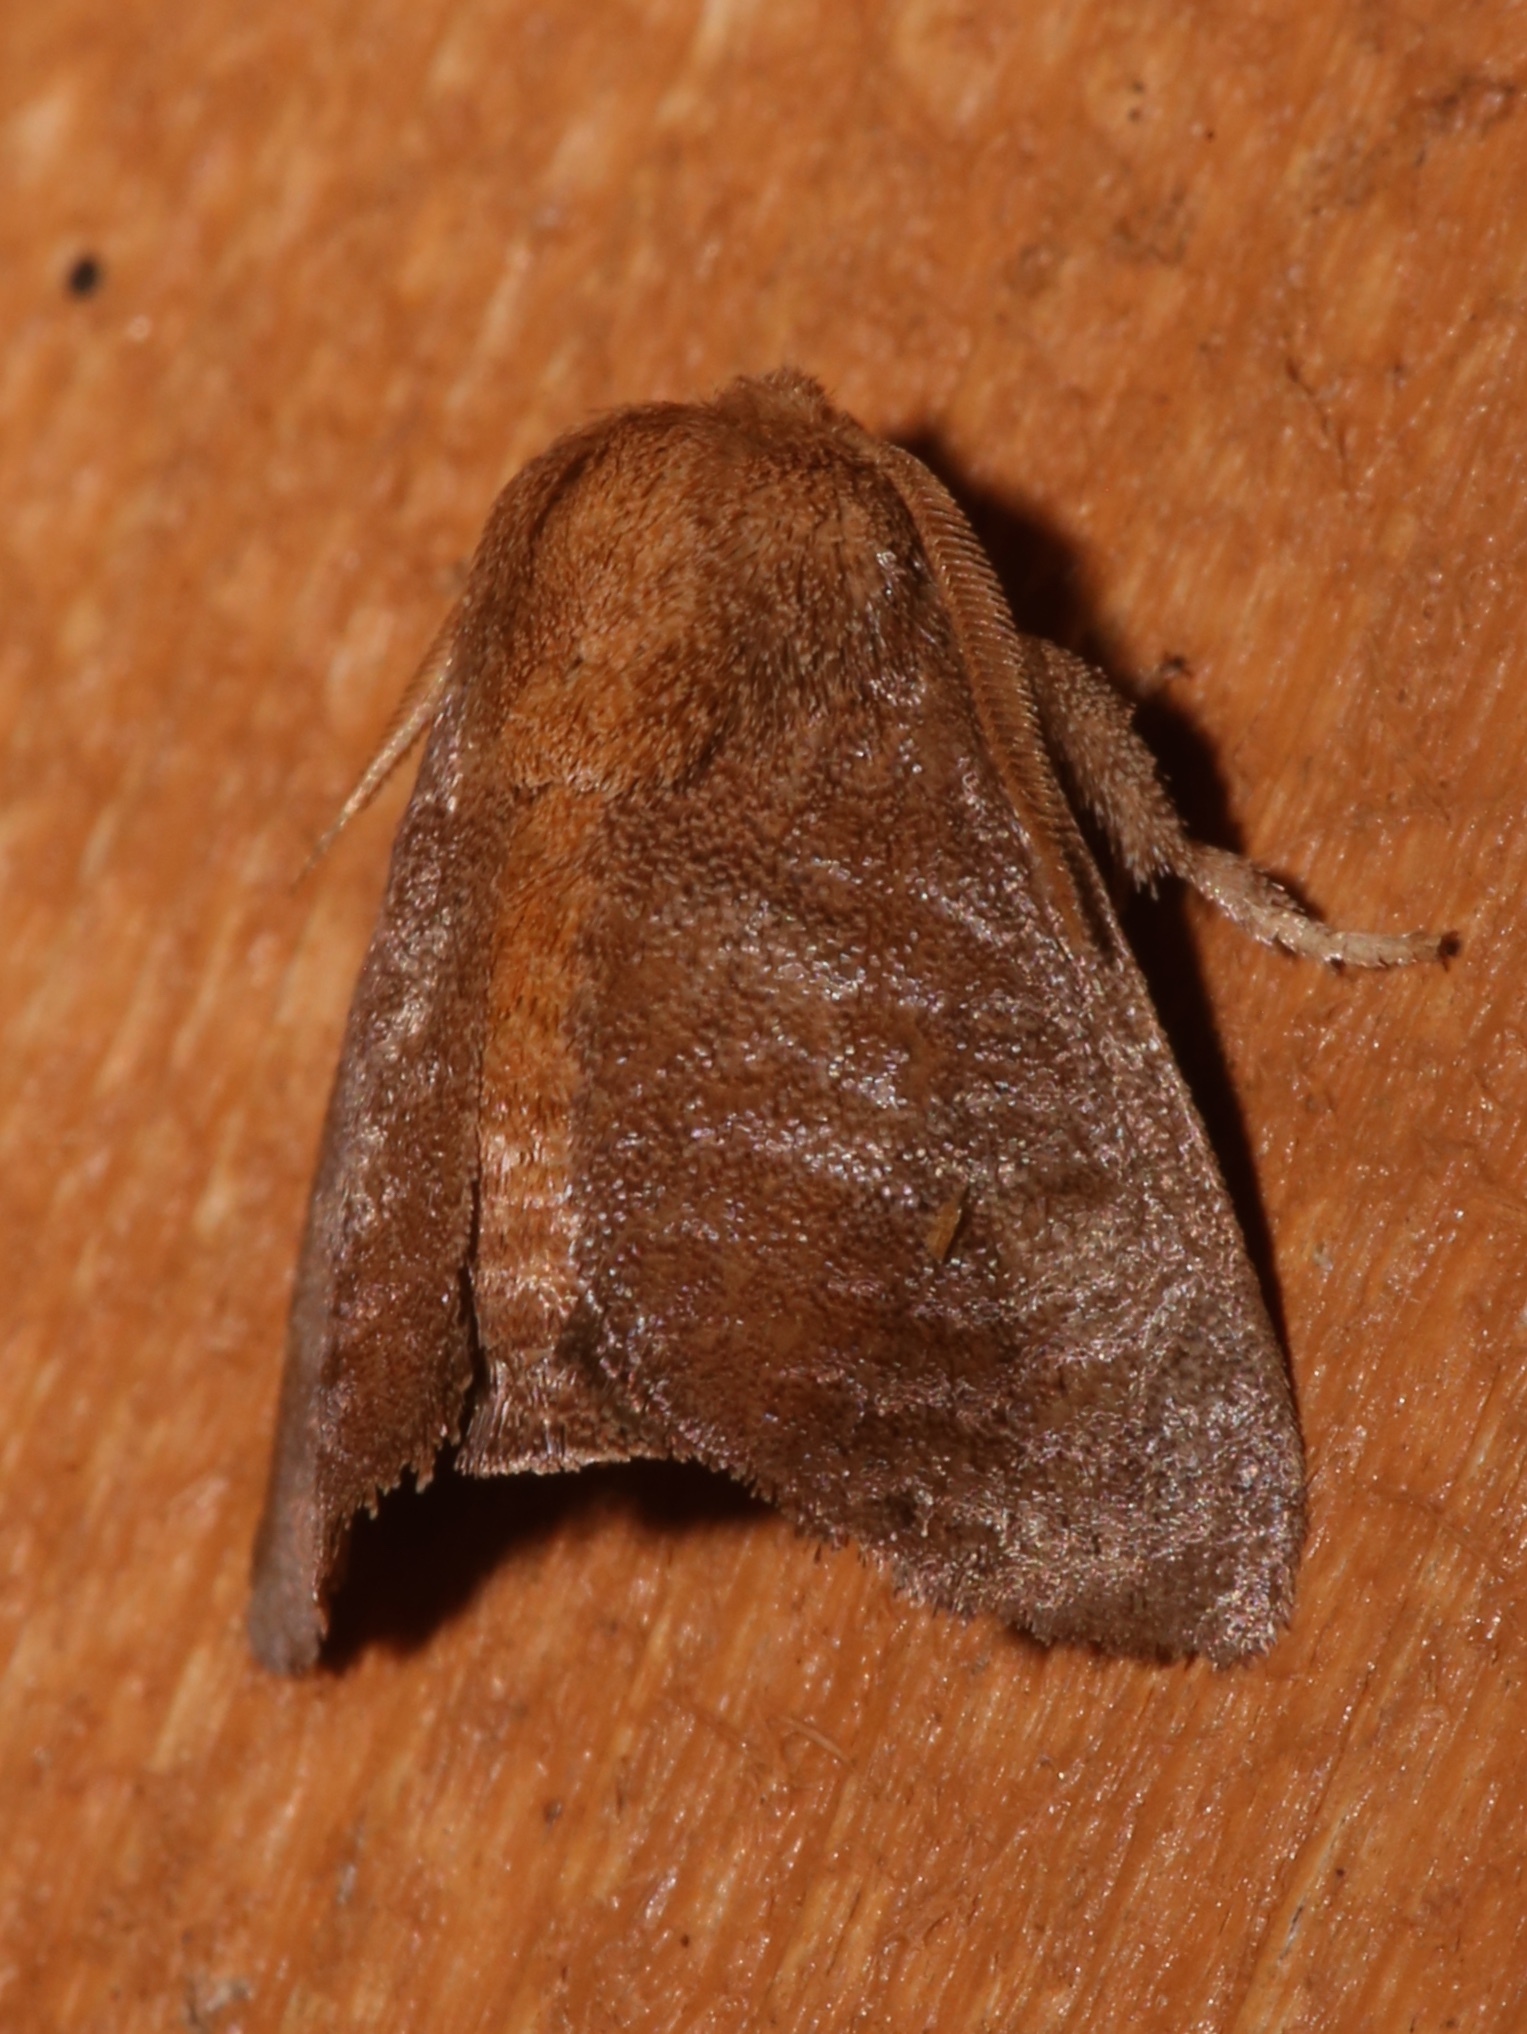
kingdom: Animalia
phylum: Arthropoda
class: Insecta
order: Lepidoptera
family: Limacodidae
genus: Isa
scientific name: Isa textula
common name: Crowned slug moth
